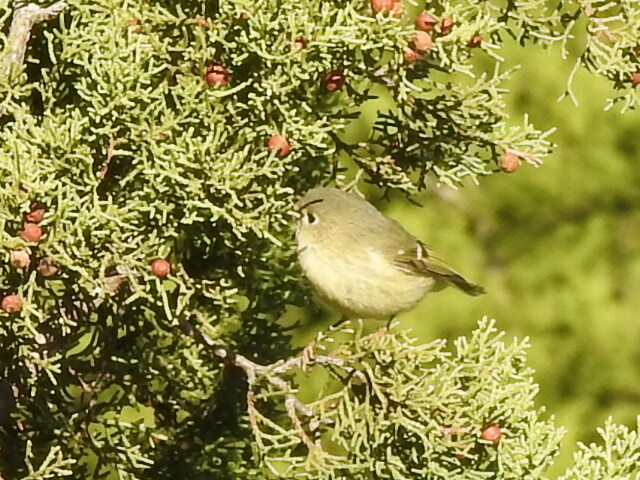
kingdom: Animalia
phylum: Chordata
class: Aves
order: Passeriformes
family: Regulidae
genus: Regulus
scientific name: Regulus calendula
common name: Ruby-crowned kinglet
